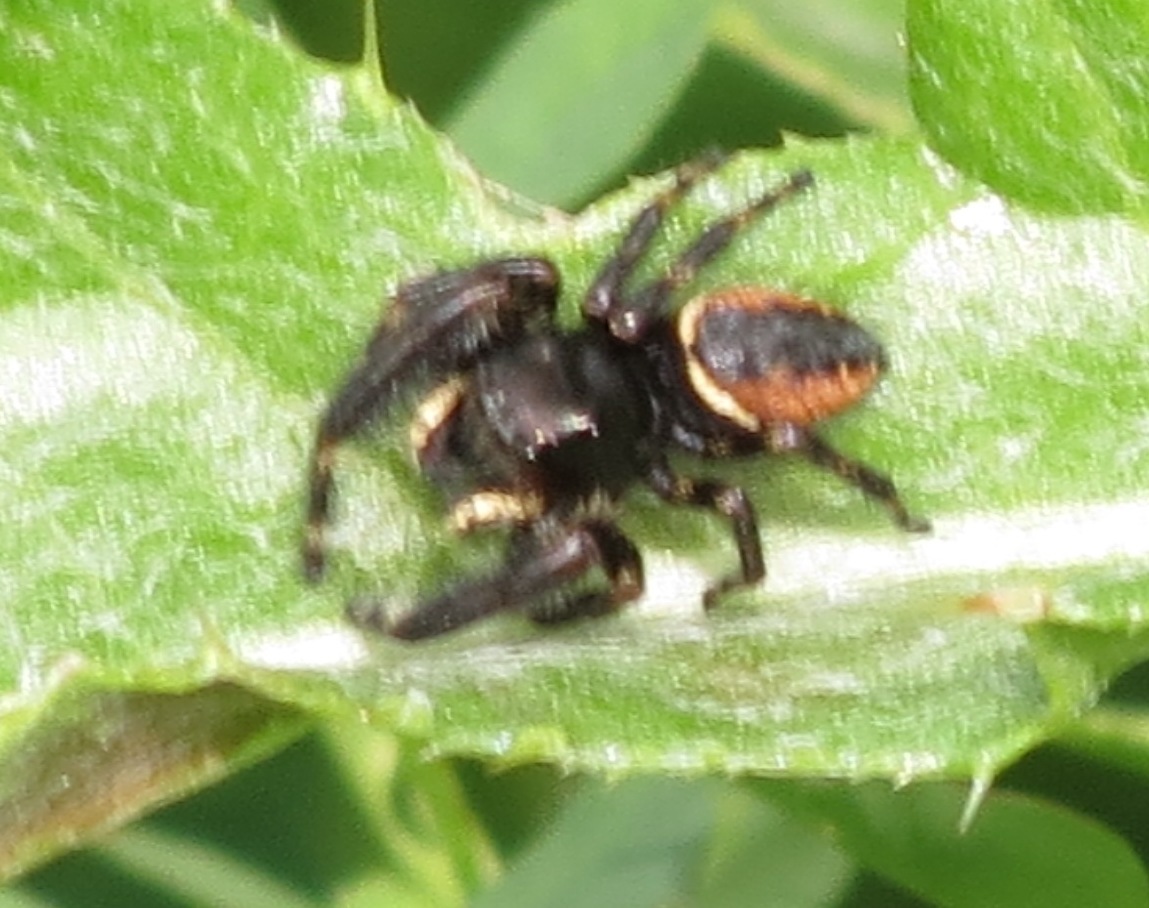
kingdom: Animalia
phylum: Arthropoda
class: Arachnida
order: Araneae
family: Salticidae
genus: Phidippus
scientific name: Phidippus clarus
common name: Brilliant jumping spider
